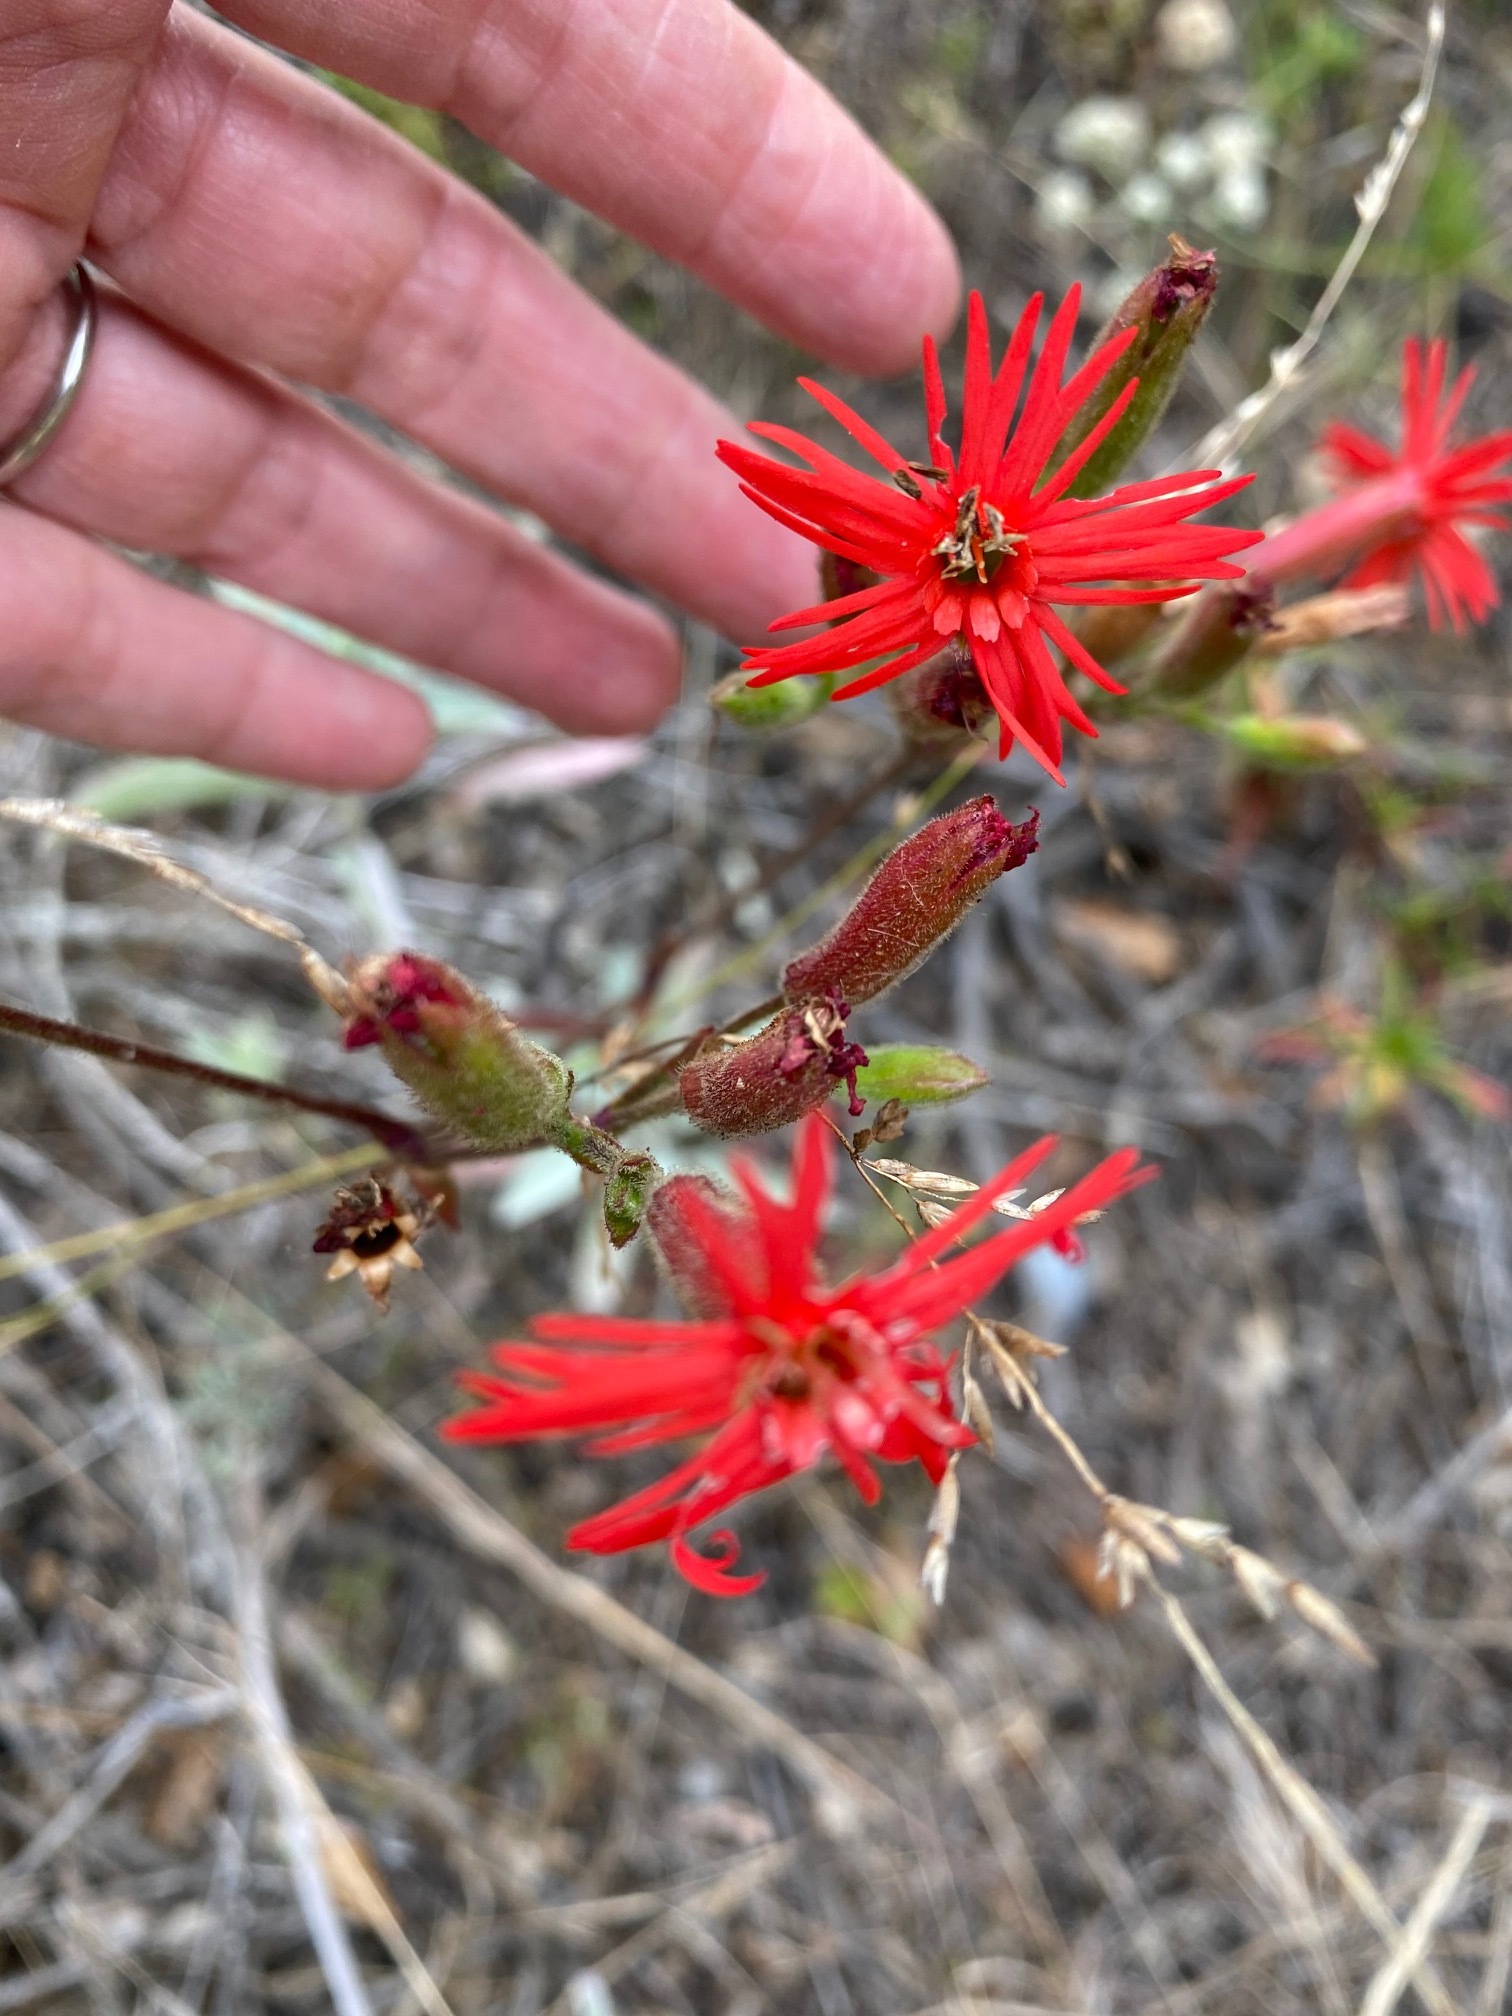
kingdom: Plantae
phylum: Tracheophyta
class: Magnoliopsida
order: Caryophyllales
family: Caryophyllaceae
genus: Silene
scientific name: Silene laciniata
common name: Indian-pink
